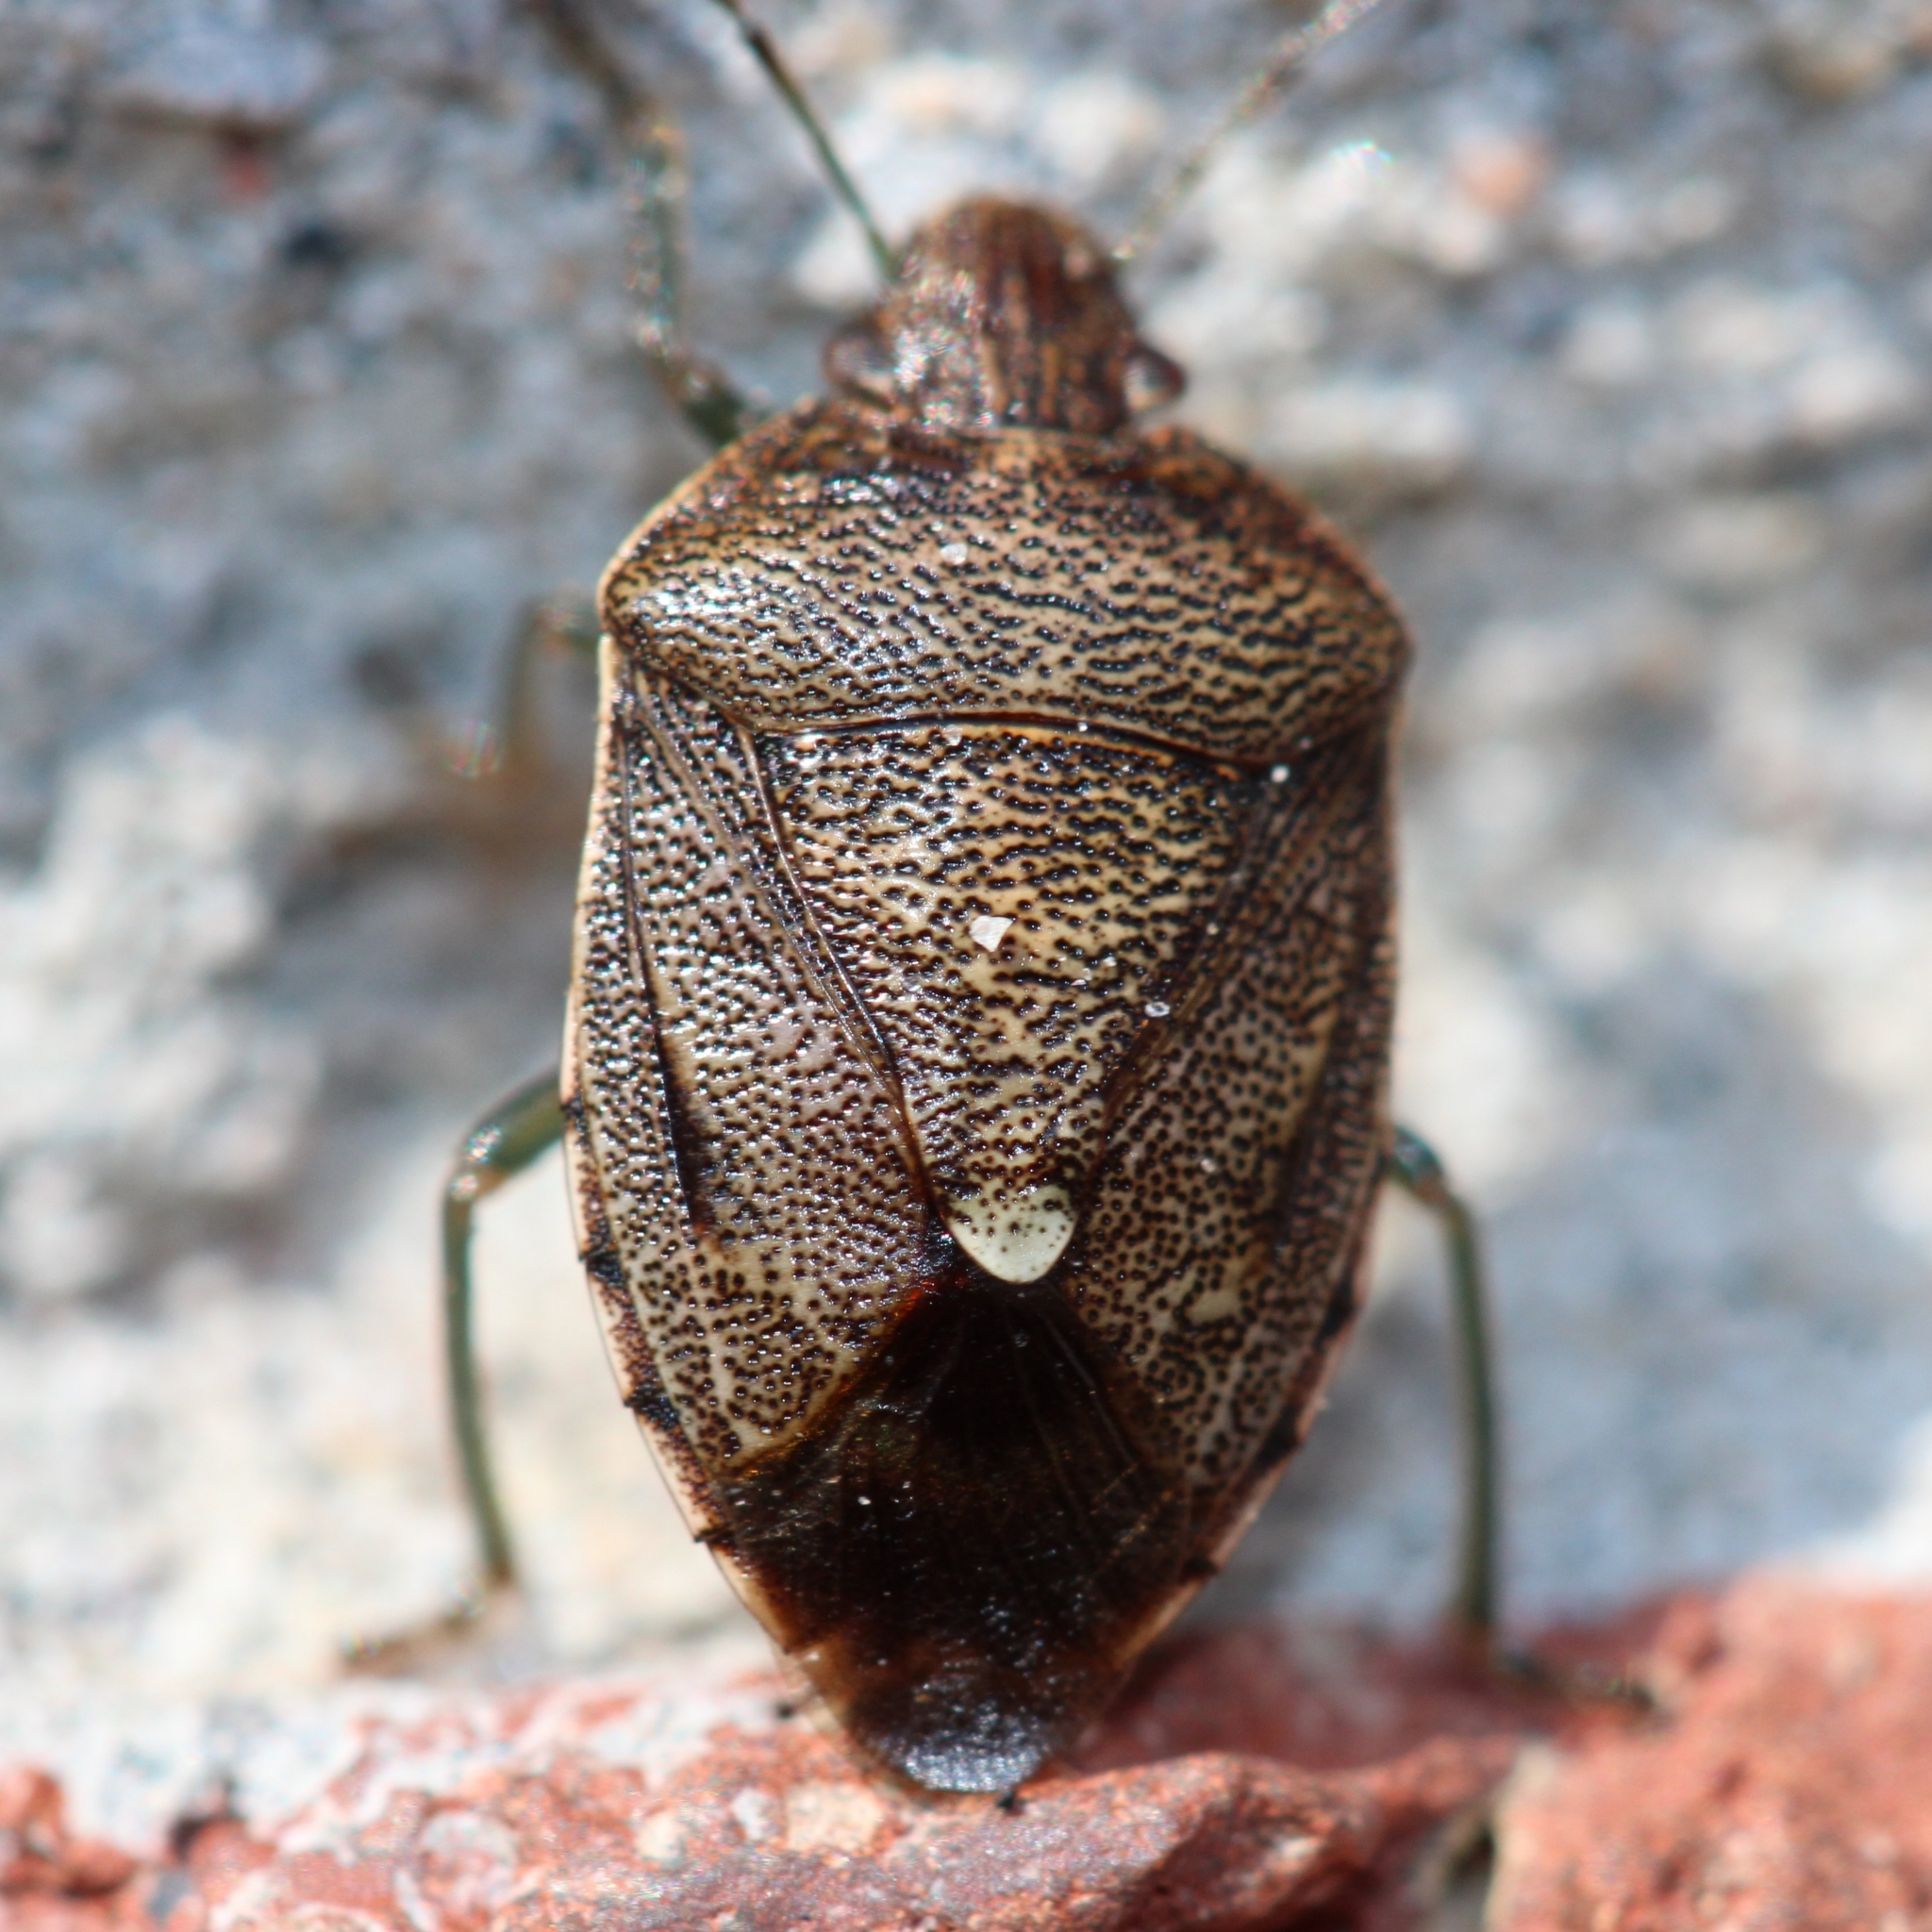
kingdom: Animalia
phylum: Arthropoda
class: Insecta
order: Hemiptera
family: Pentatomidae
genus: Banasa
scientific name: Banasa sordida
